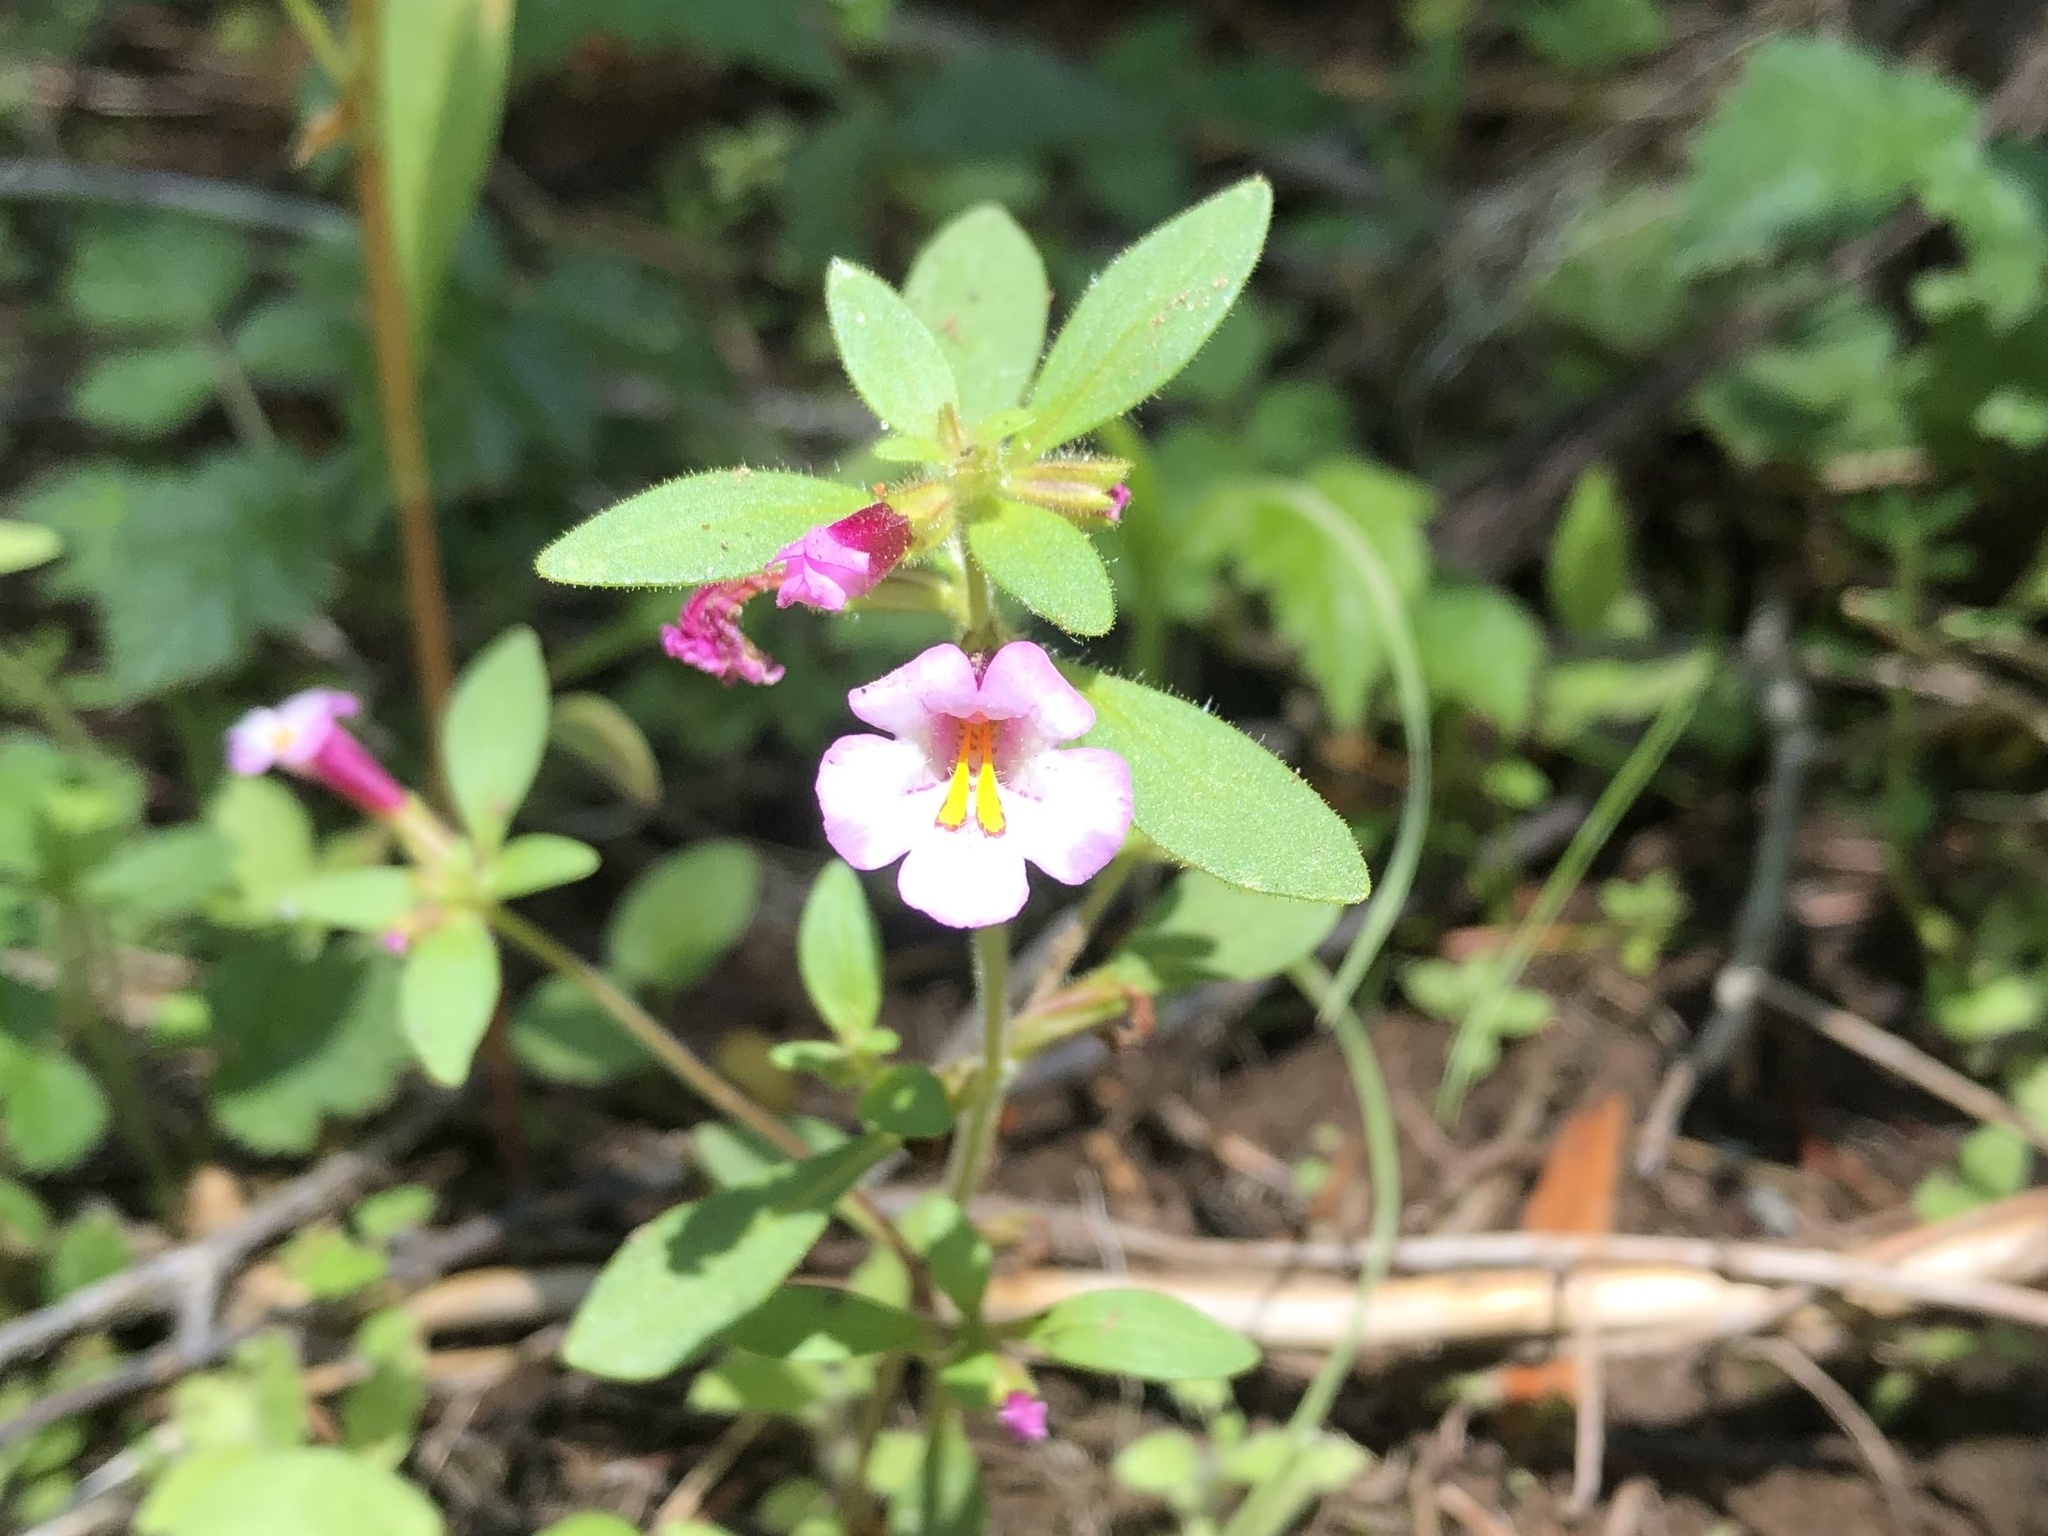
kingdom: Plantae
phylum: Tracheophyta
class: Magnoliopsida
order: Lamiales
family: Phrymaceae
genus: Diplacus
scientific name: Diplacus torreyi
